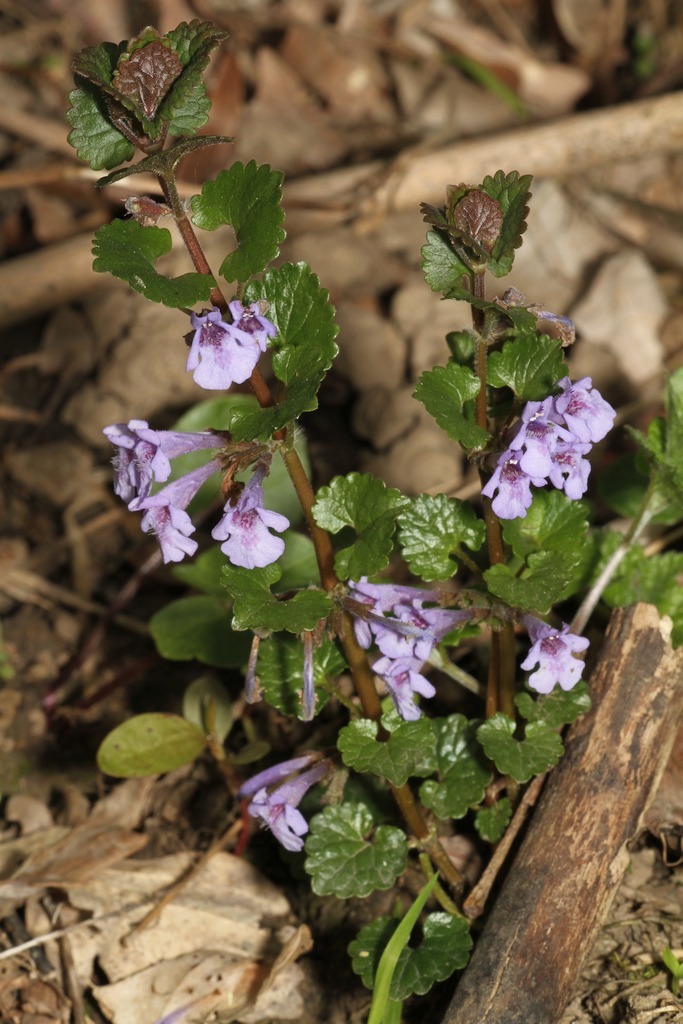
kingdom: Plantae
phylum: Tracheophyta
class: Magnoliopsida
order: Lamiales
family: Lamiaceae
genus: Glechoma
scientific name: Glechoma hederacea
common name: Ground ivy
